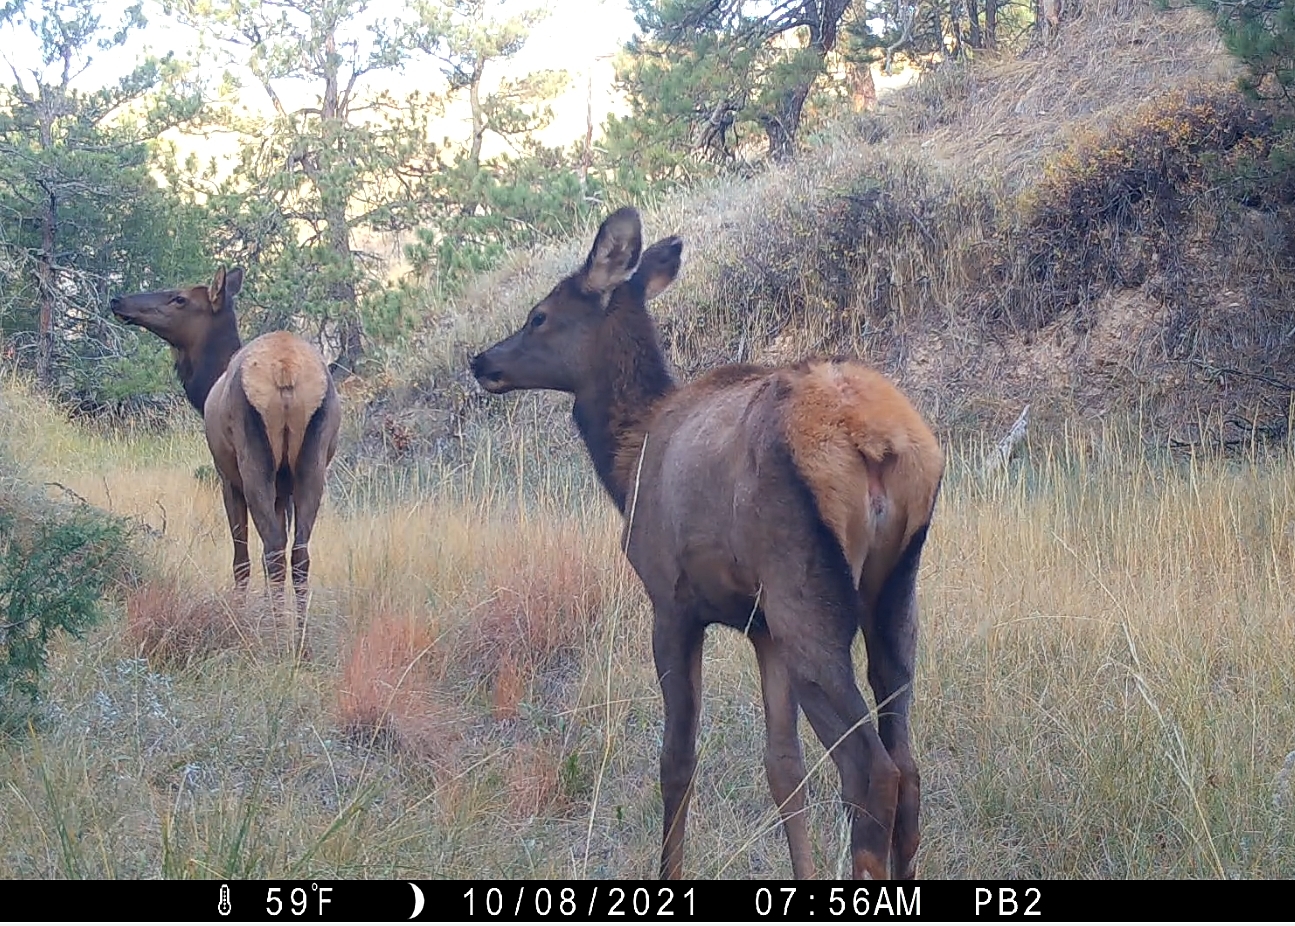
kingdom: Animalia
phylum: Chordata
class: Mammalia
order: Artiodactyla
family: Cervidae
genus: Cervus
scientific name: Cervus elaphus
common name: Red deer
